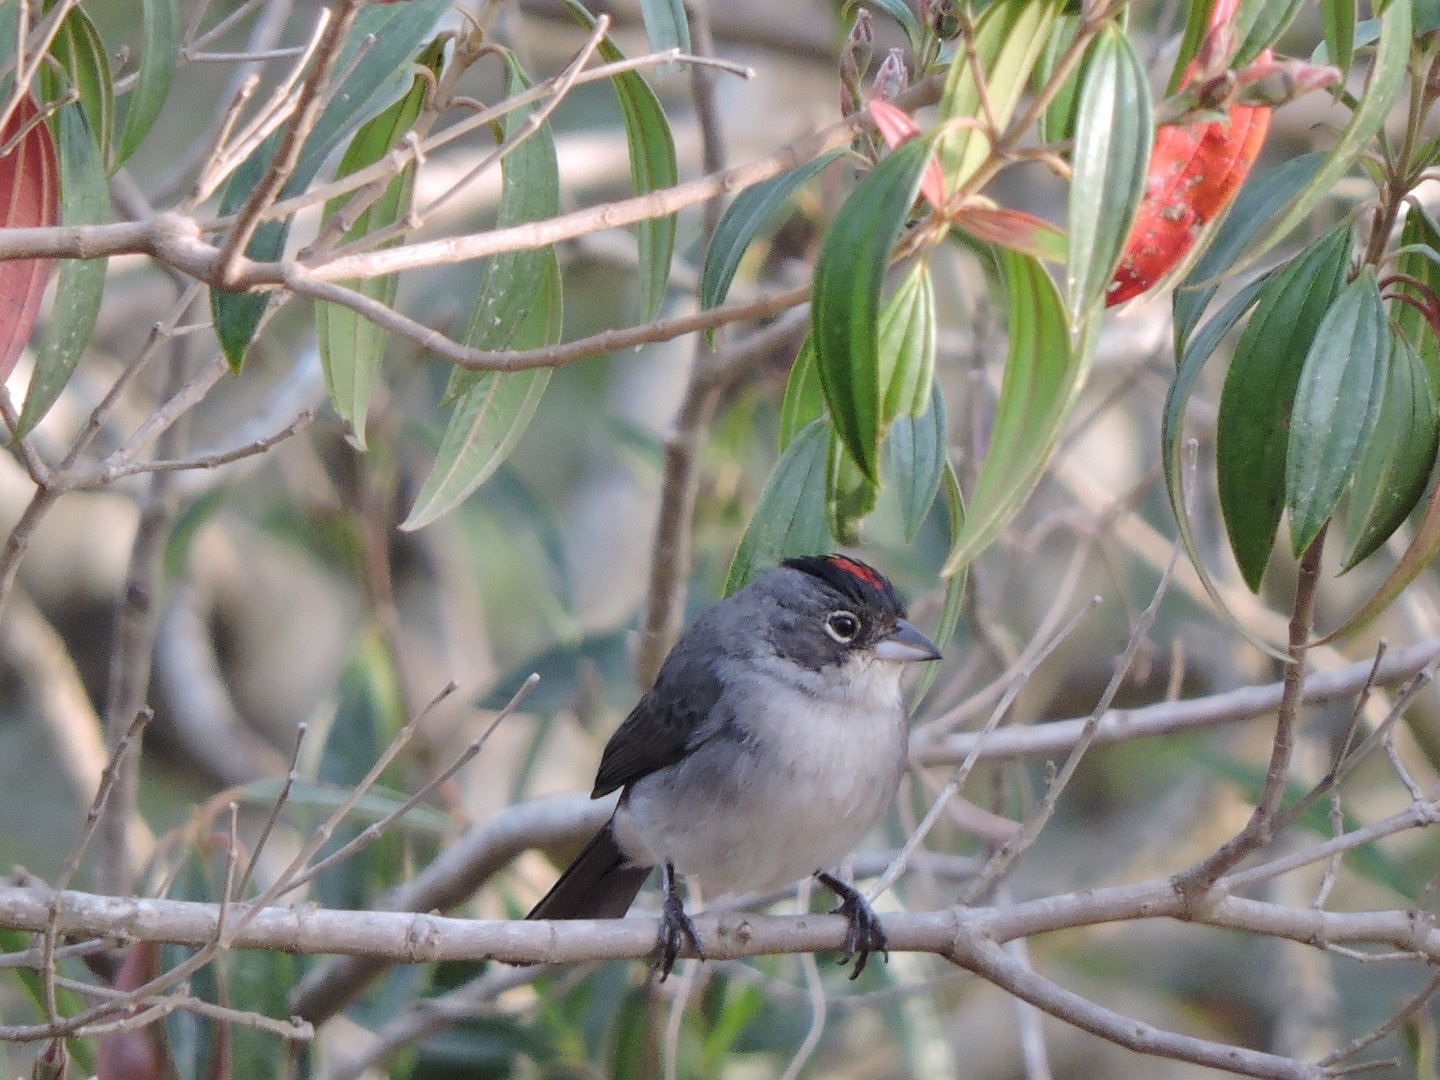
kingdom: Animalia
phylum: Chordata
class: Aves
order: Passeriformes
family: Thraupidae
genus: Coryphospingus
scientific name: Coryphospingus pileatus
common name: Grey pileated finch
